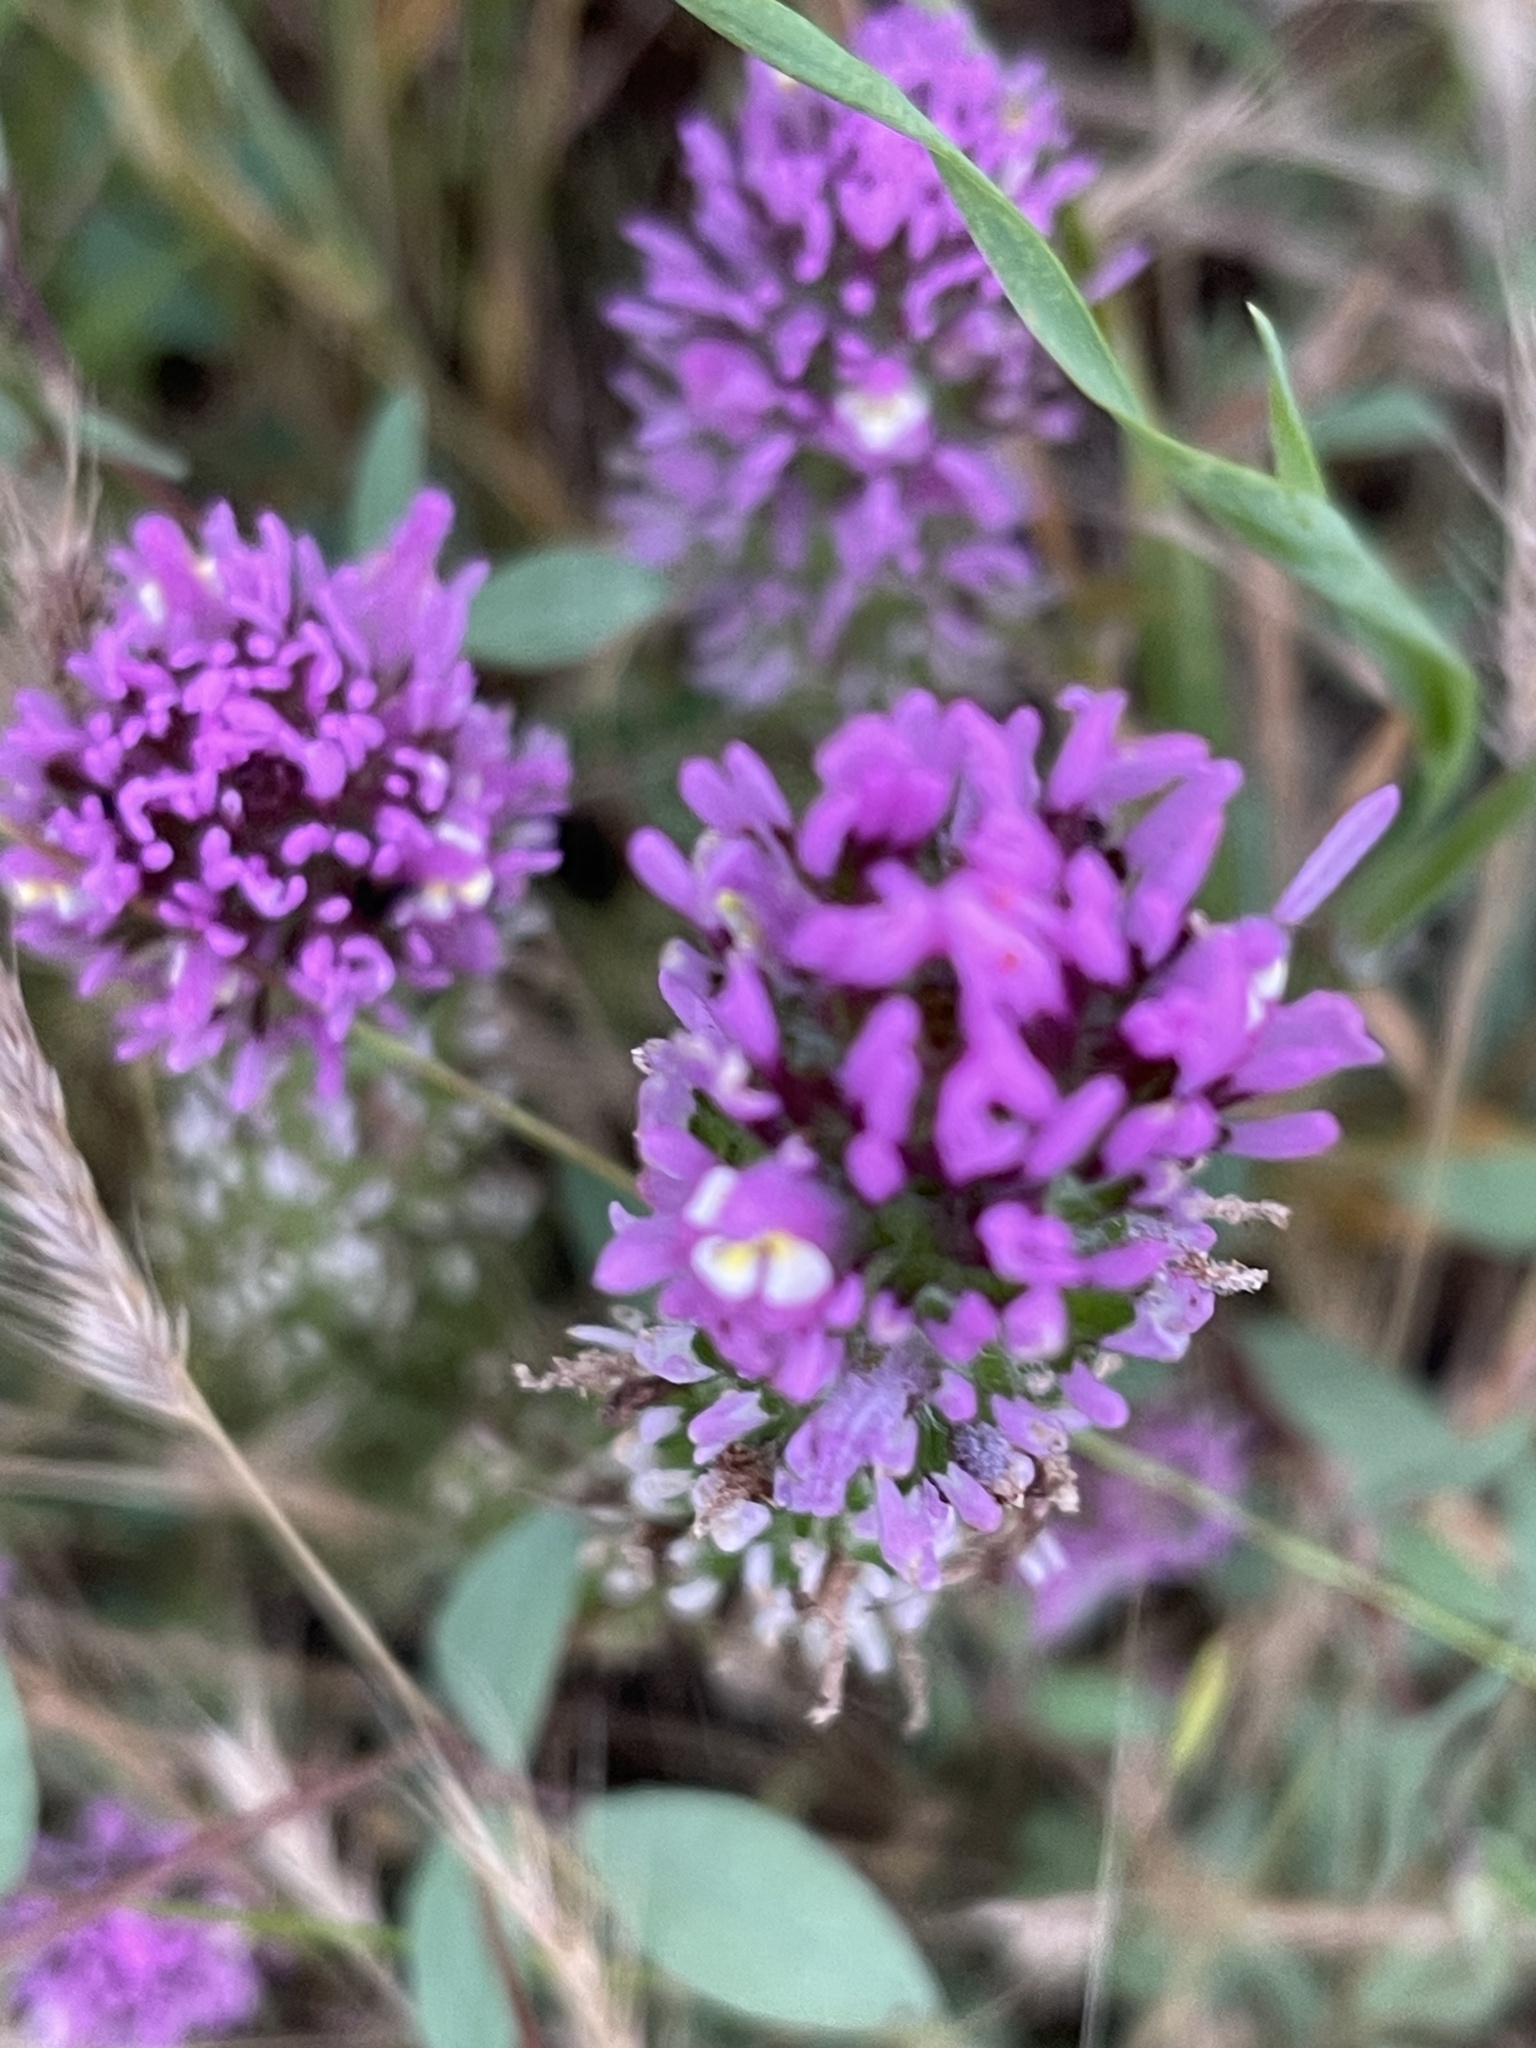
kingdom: Plantae
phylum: Tracheophyta
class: Magnoliopsida
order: Lamiales
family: Orobanchaceae
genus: Castilleja
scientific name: Castilleja exserta
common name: Purple owl-clover
